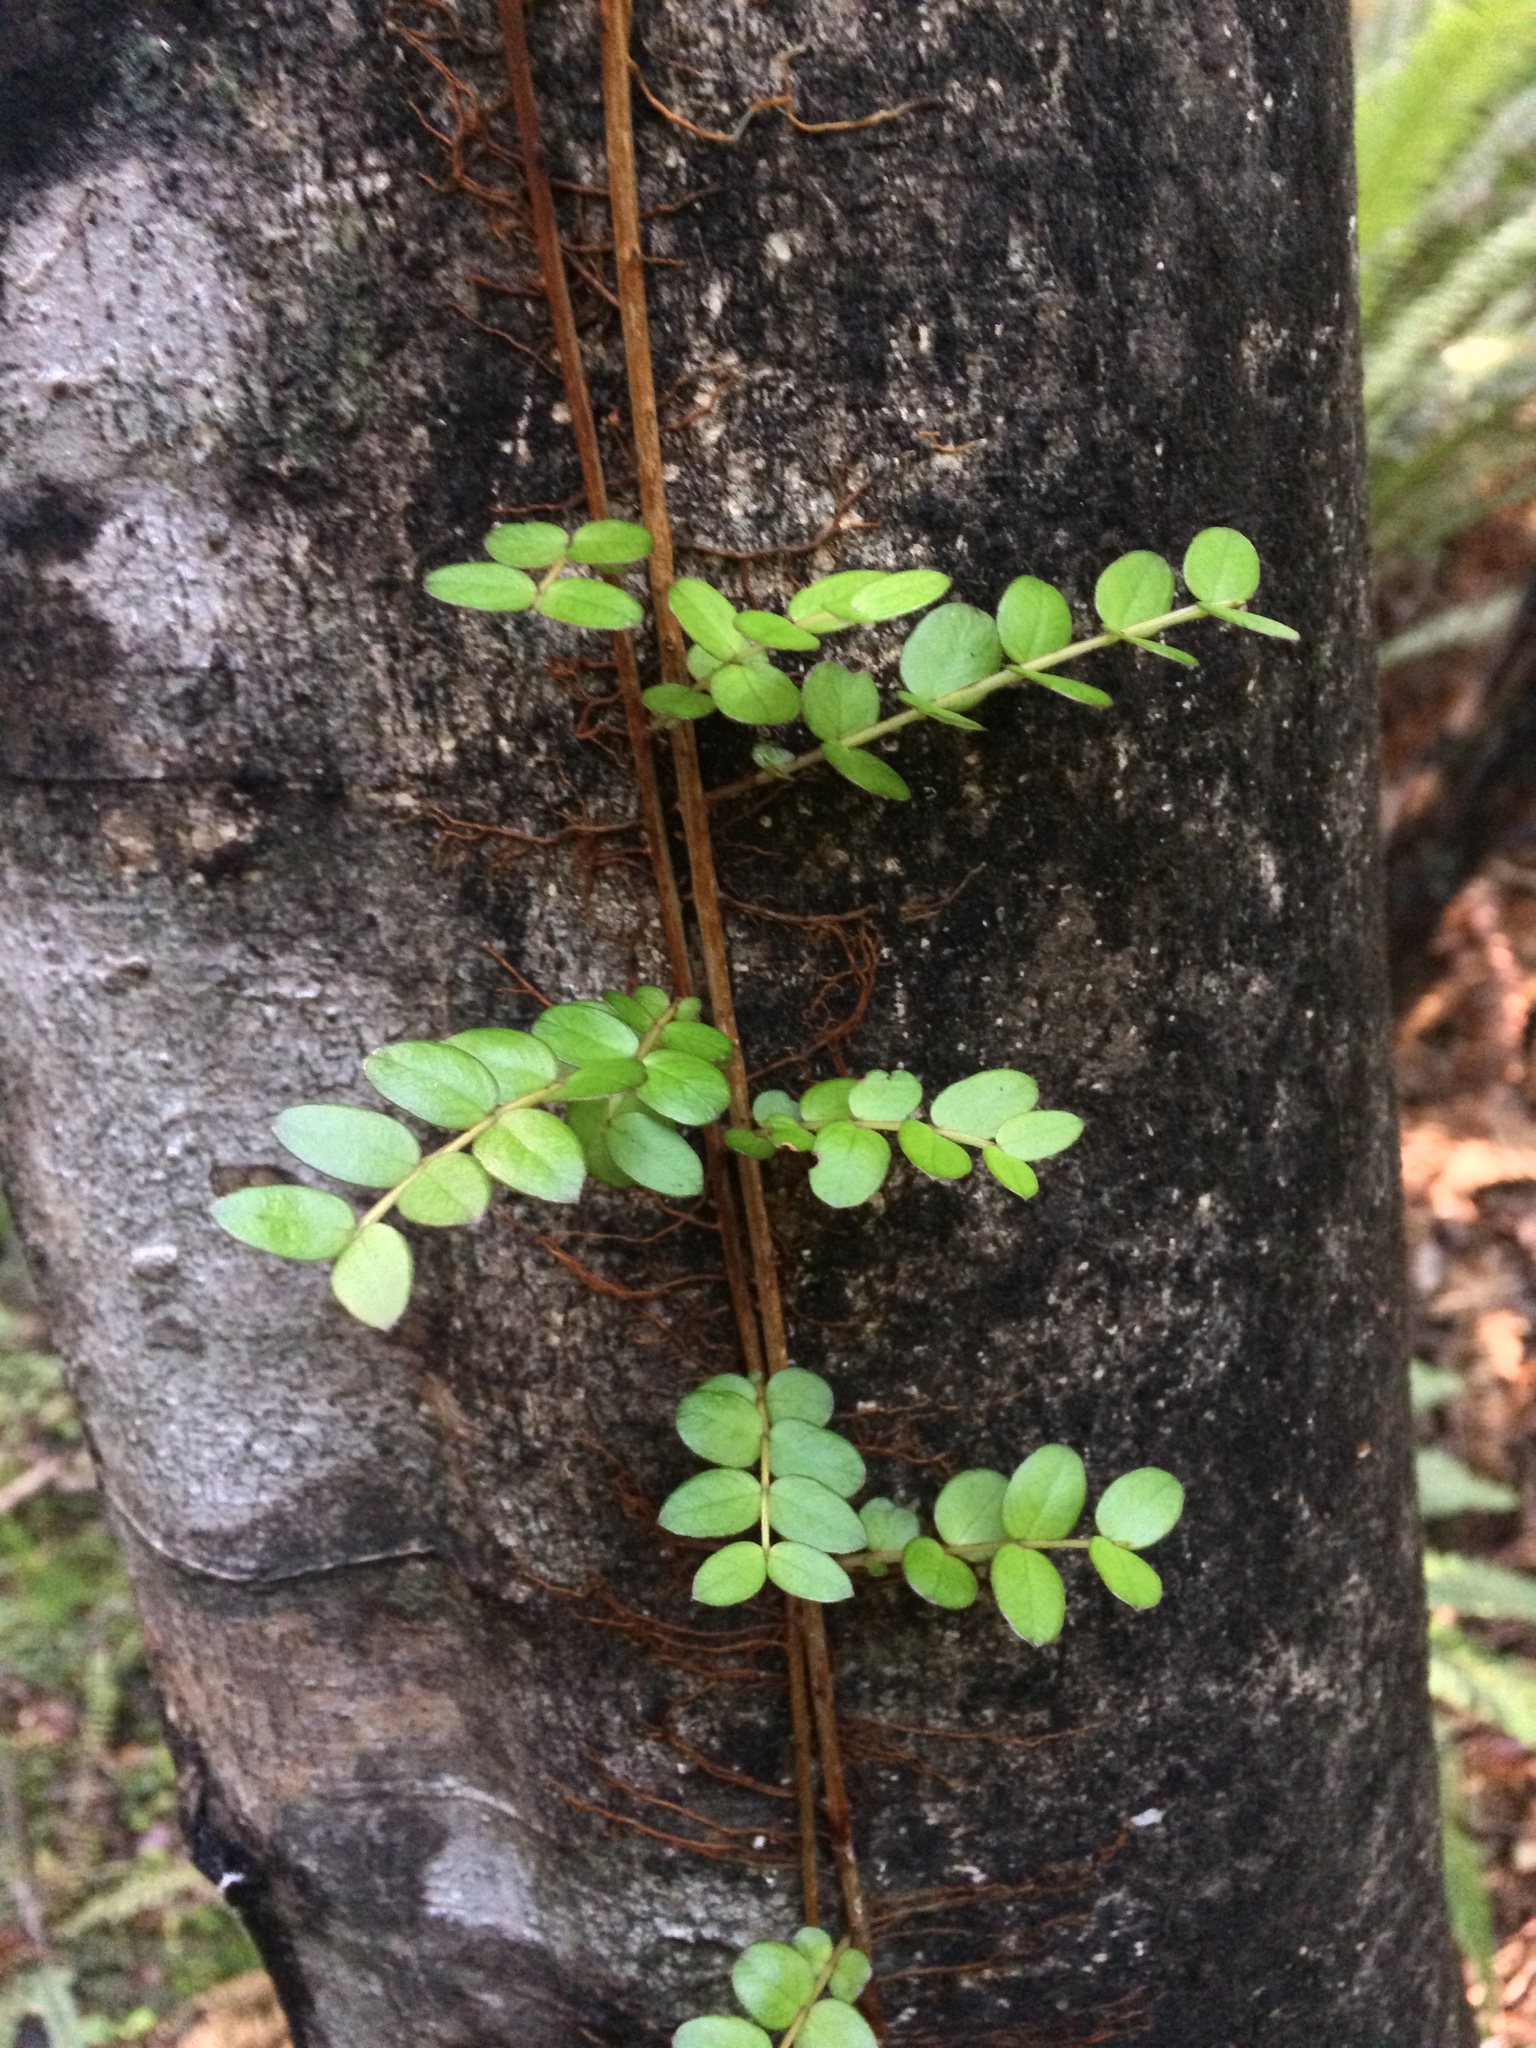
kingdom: Plantae
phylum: Tracheophyta
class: Magnoliopsida
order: Myrtales
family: Myrtaceae
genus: Metrosideros
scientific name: Metrosideros diffusa
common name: Small ratavine
